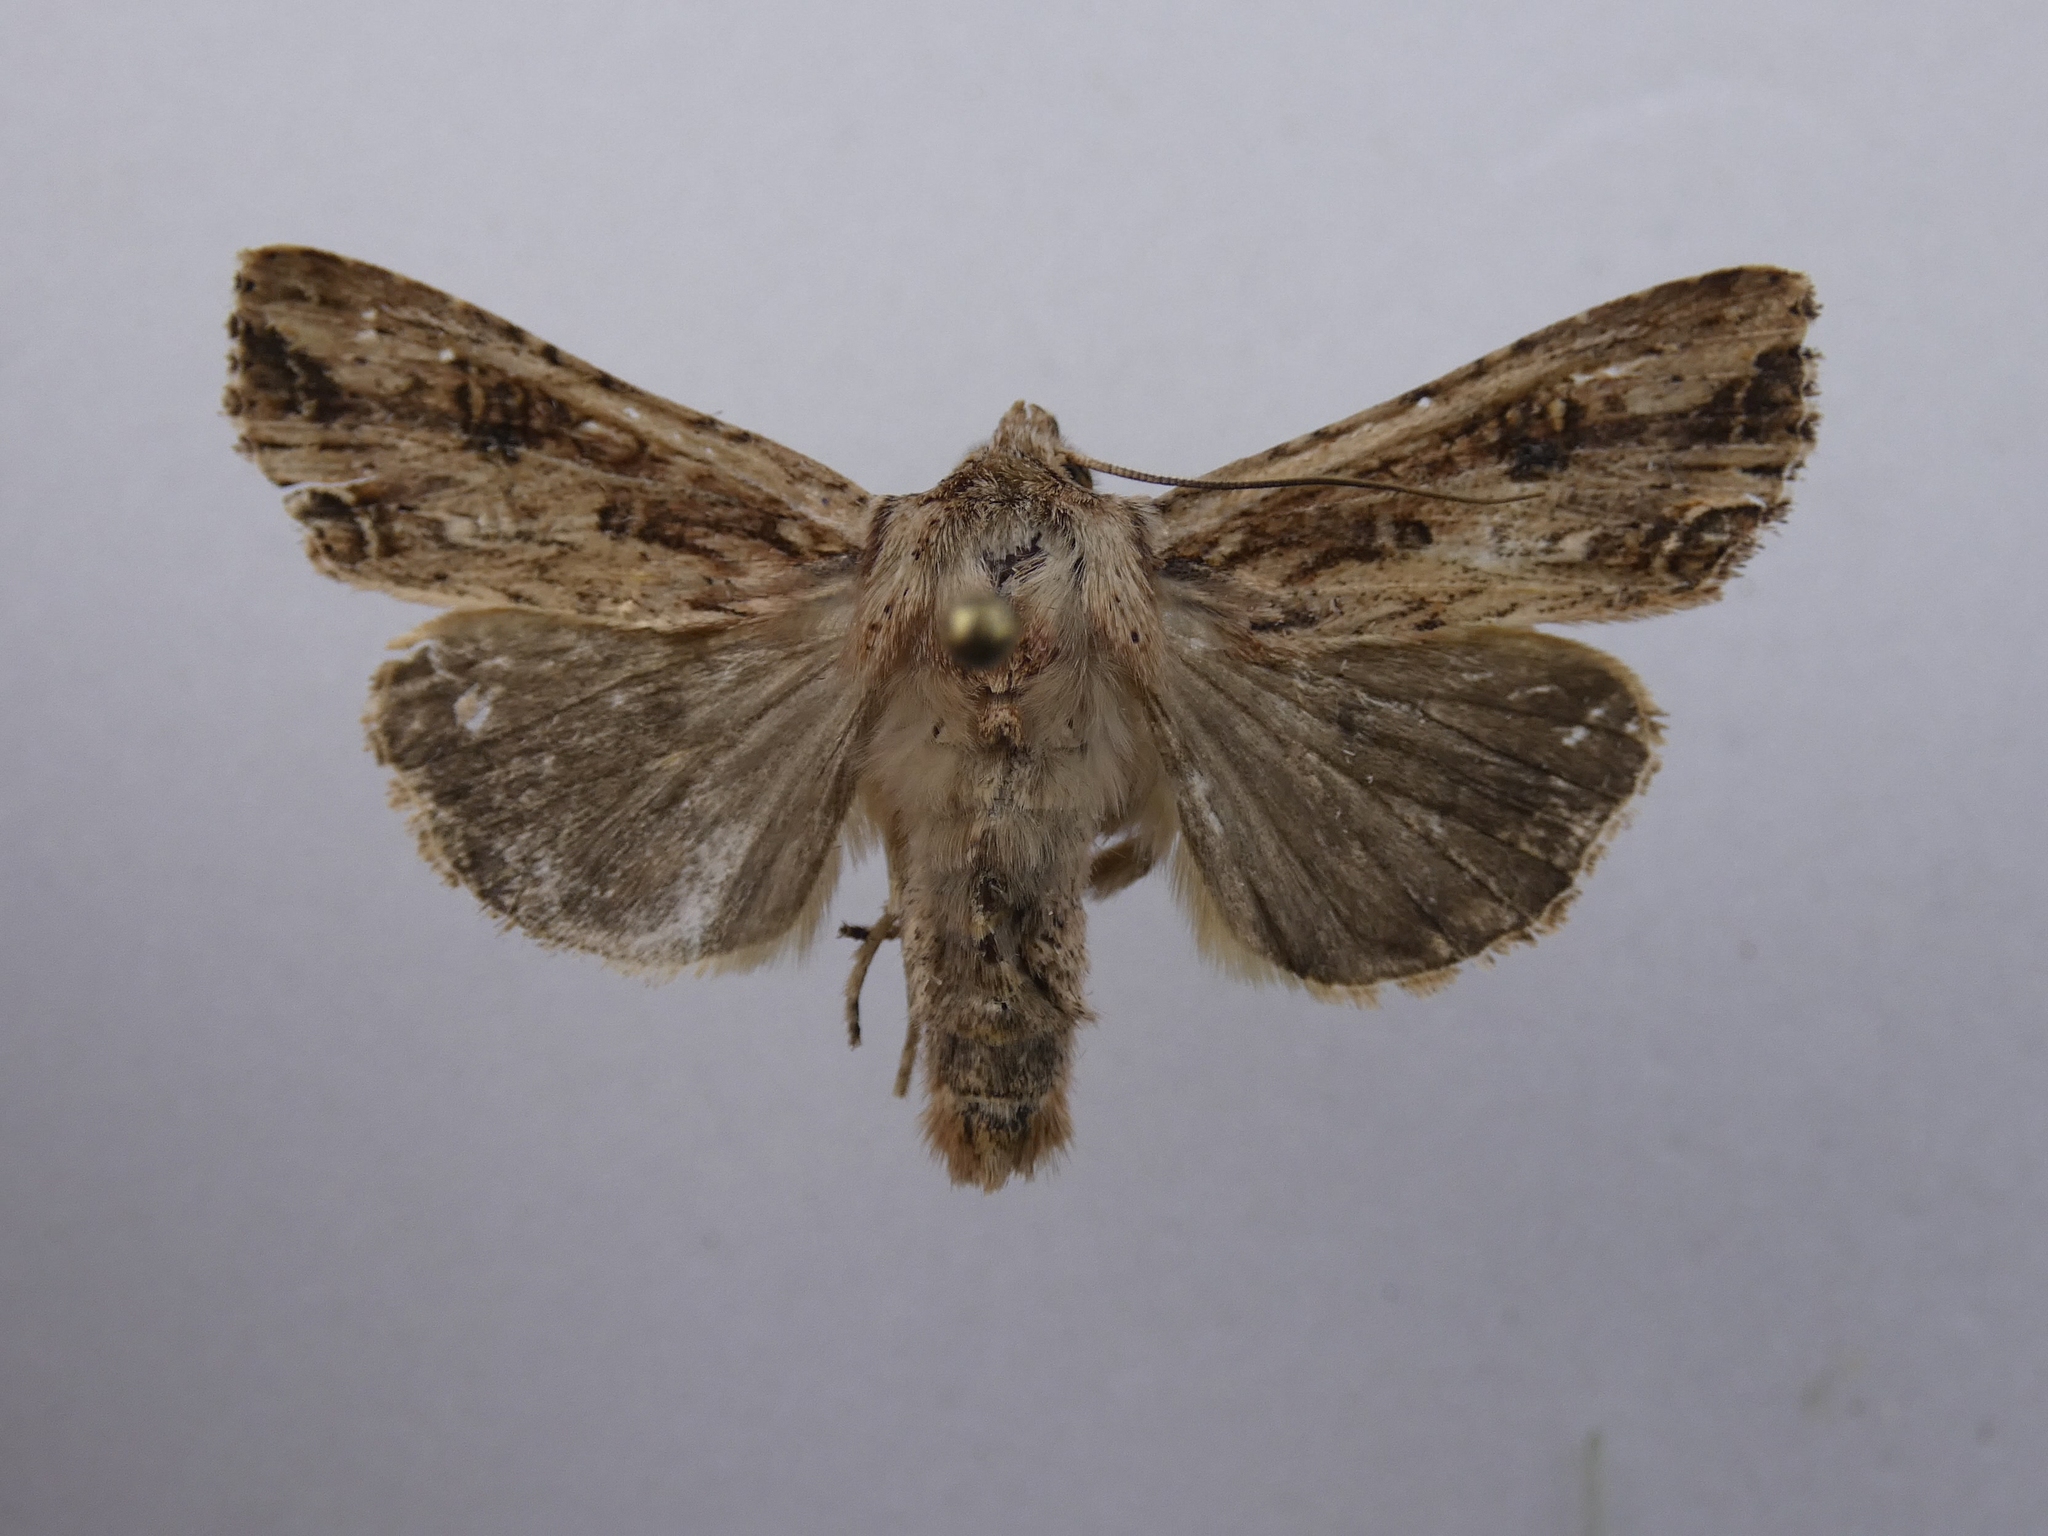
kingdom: Animalia
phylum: Arthropoda
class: Insecta
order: Lepidoptera
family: Noctuidae
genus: Ichneutica
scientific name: Ichneutica lignana
